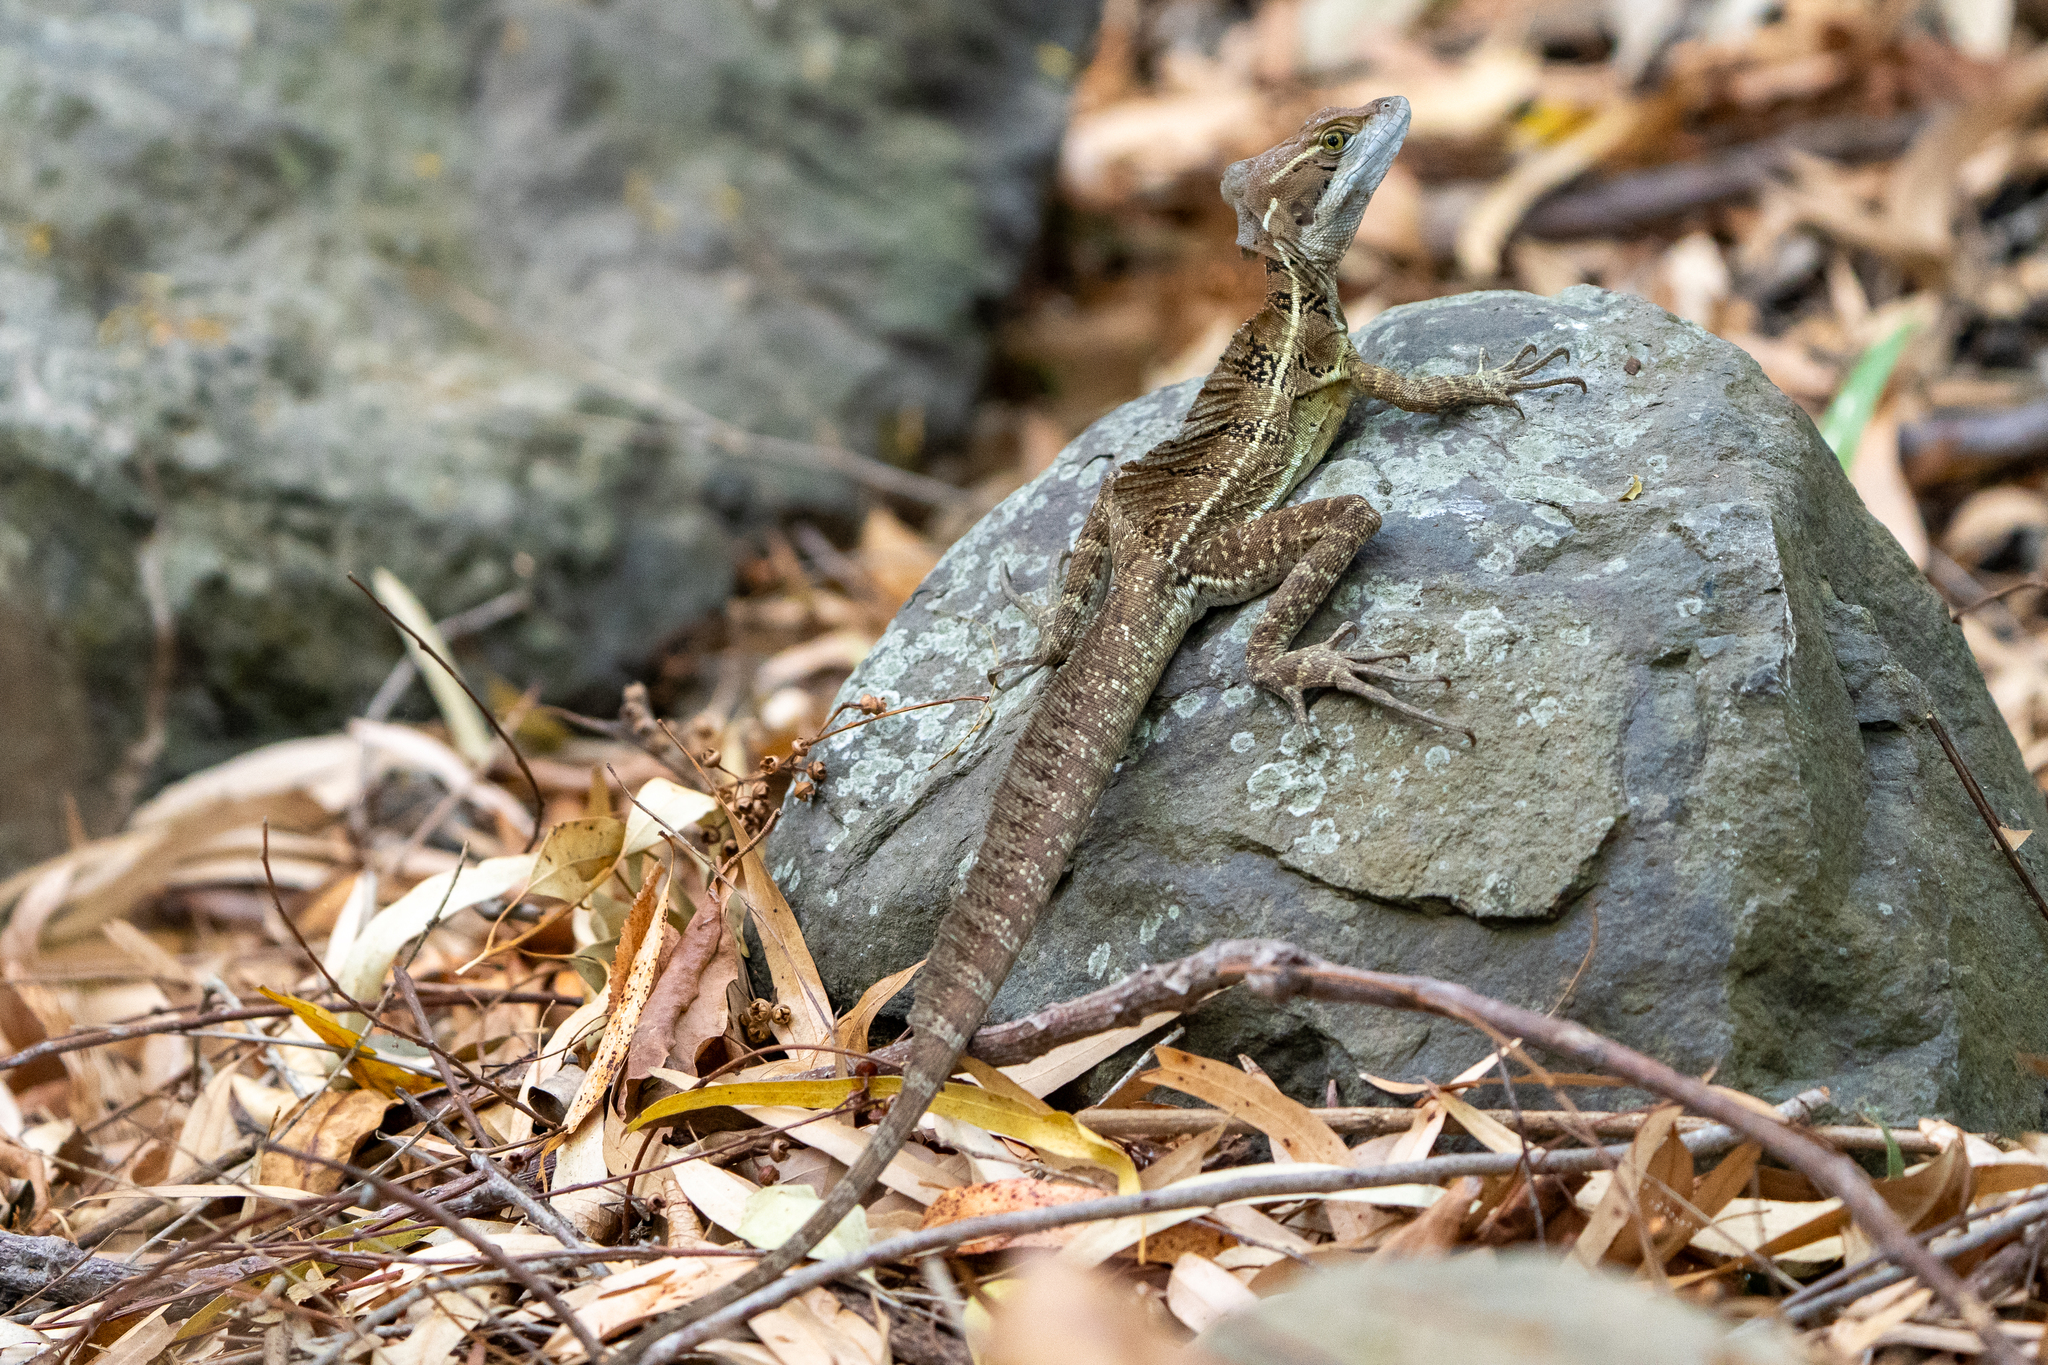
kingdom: Animalia
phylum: Chordata
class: Squamata
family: Corytophanidae
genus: Basiliscus
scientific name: Basiliscus basiliscus
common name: Common basilisk
